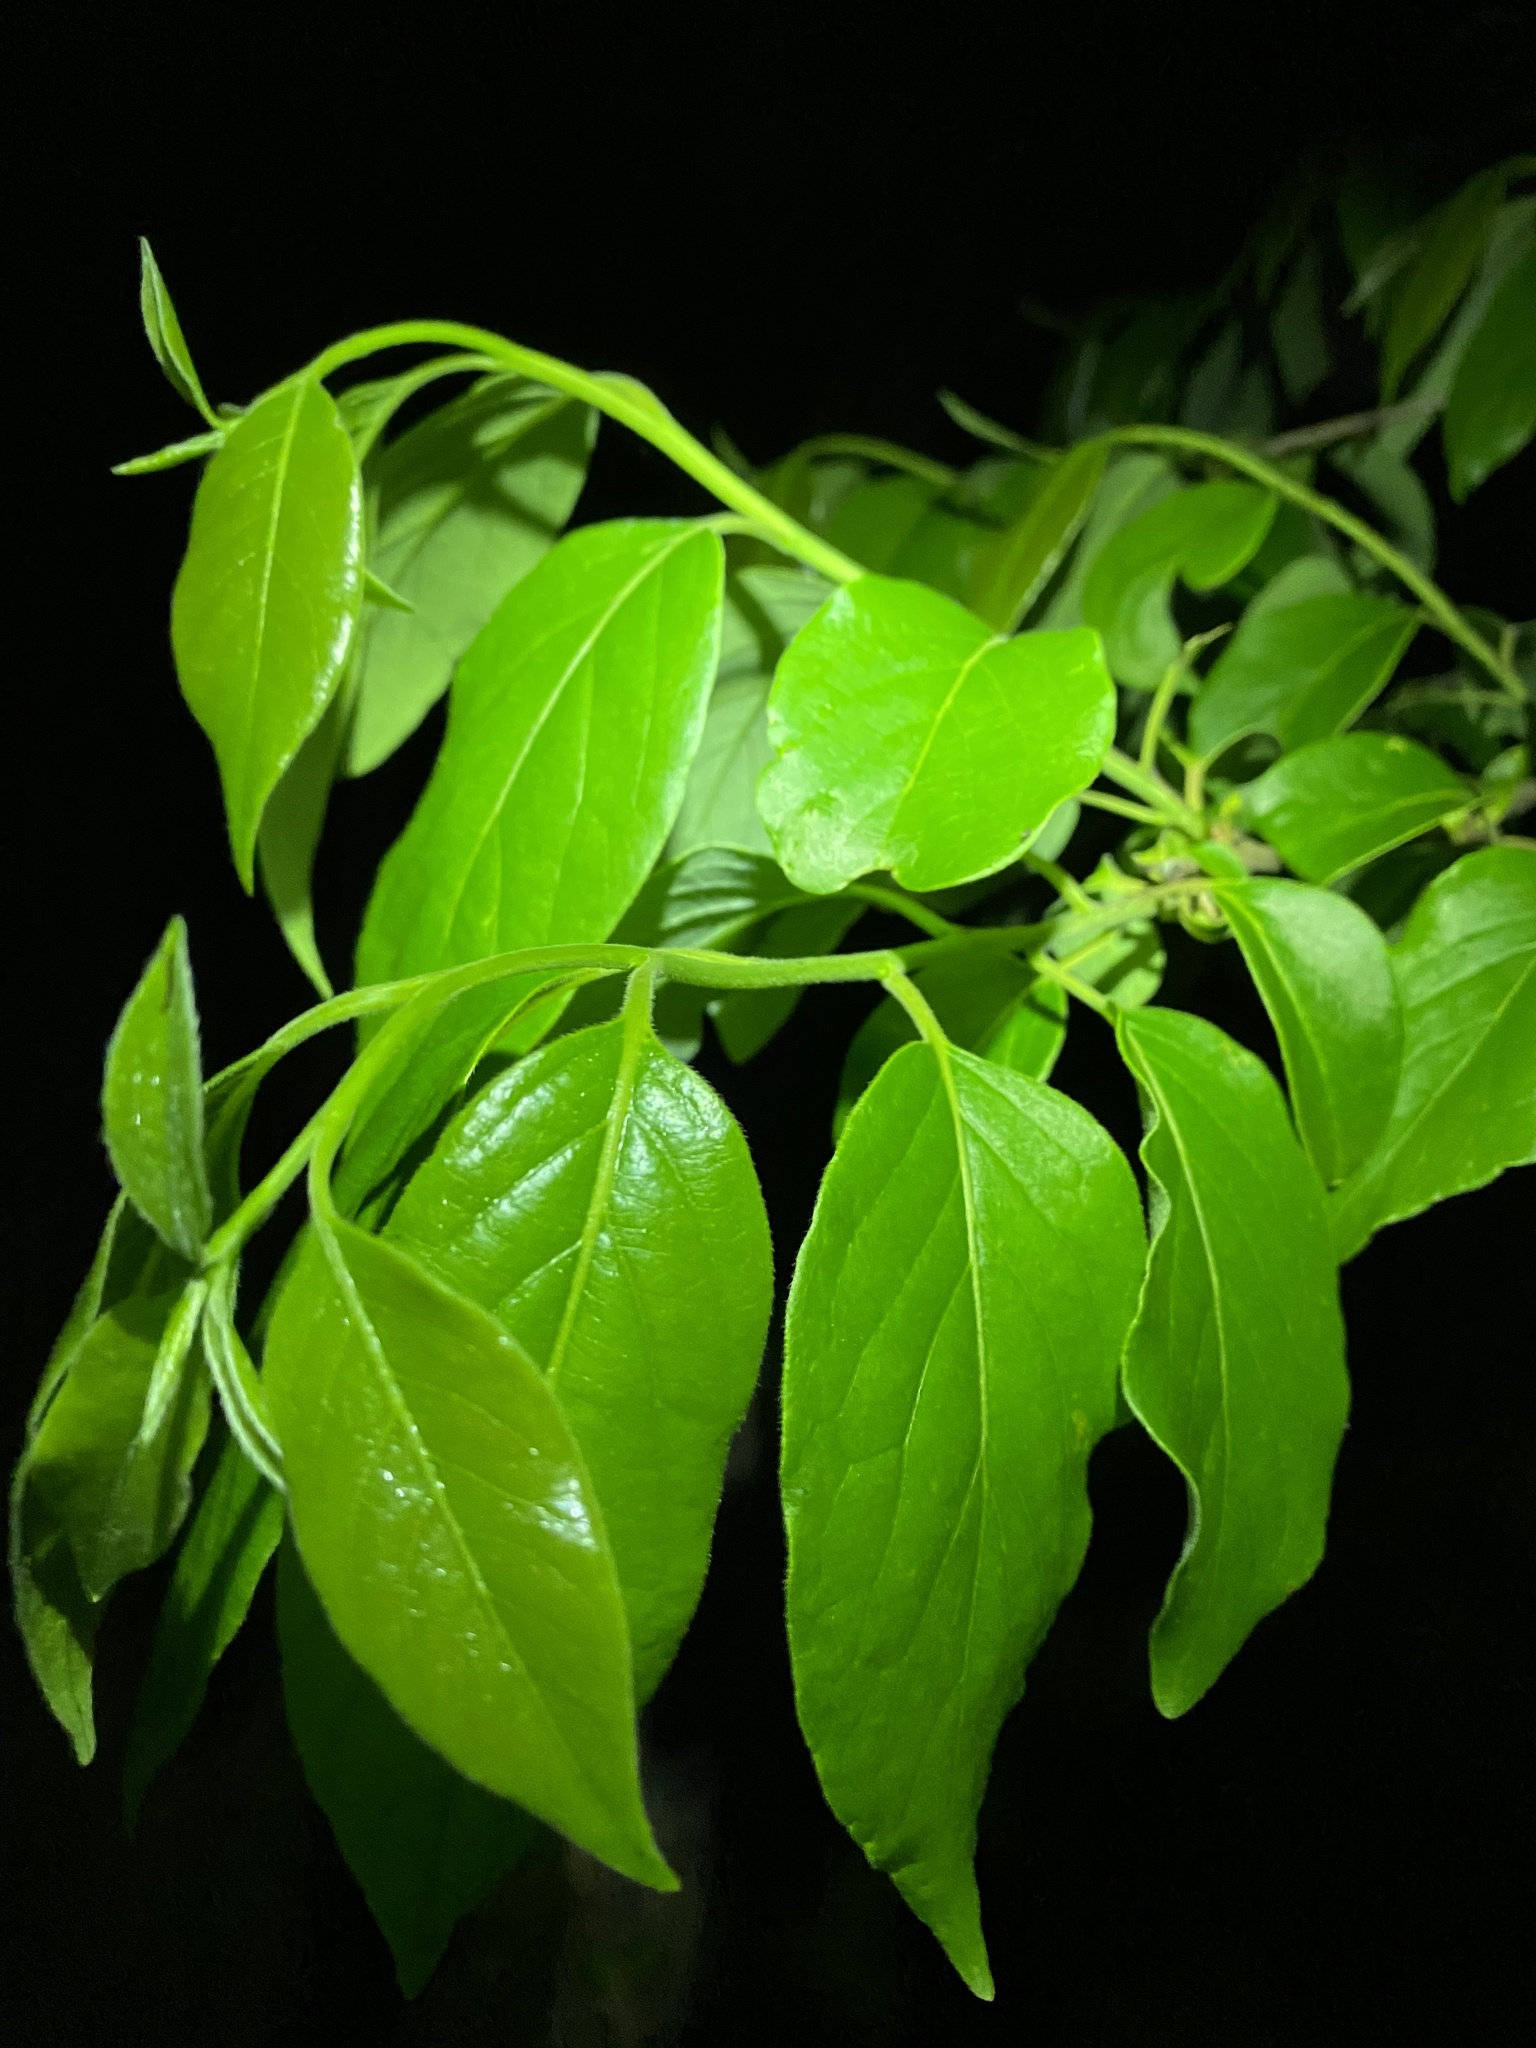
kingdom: Plantae
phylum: Tracheophyta
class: Magnoliopsida
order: Ericales
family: Ebenaceae
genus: Diospyros
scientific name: Diospyros virginiana
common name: Persimmon
